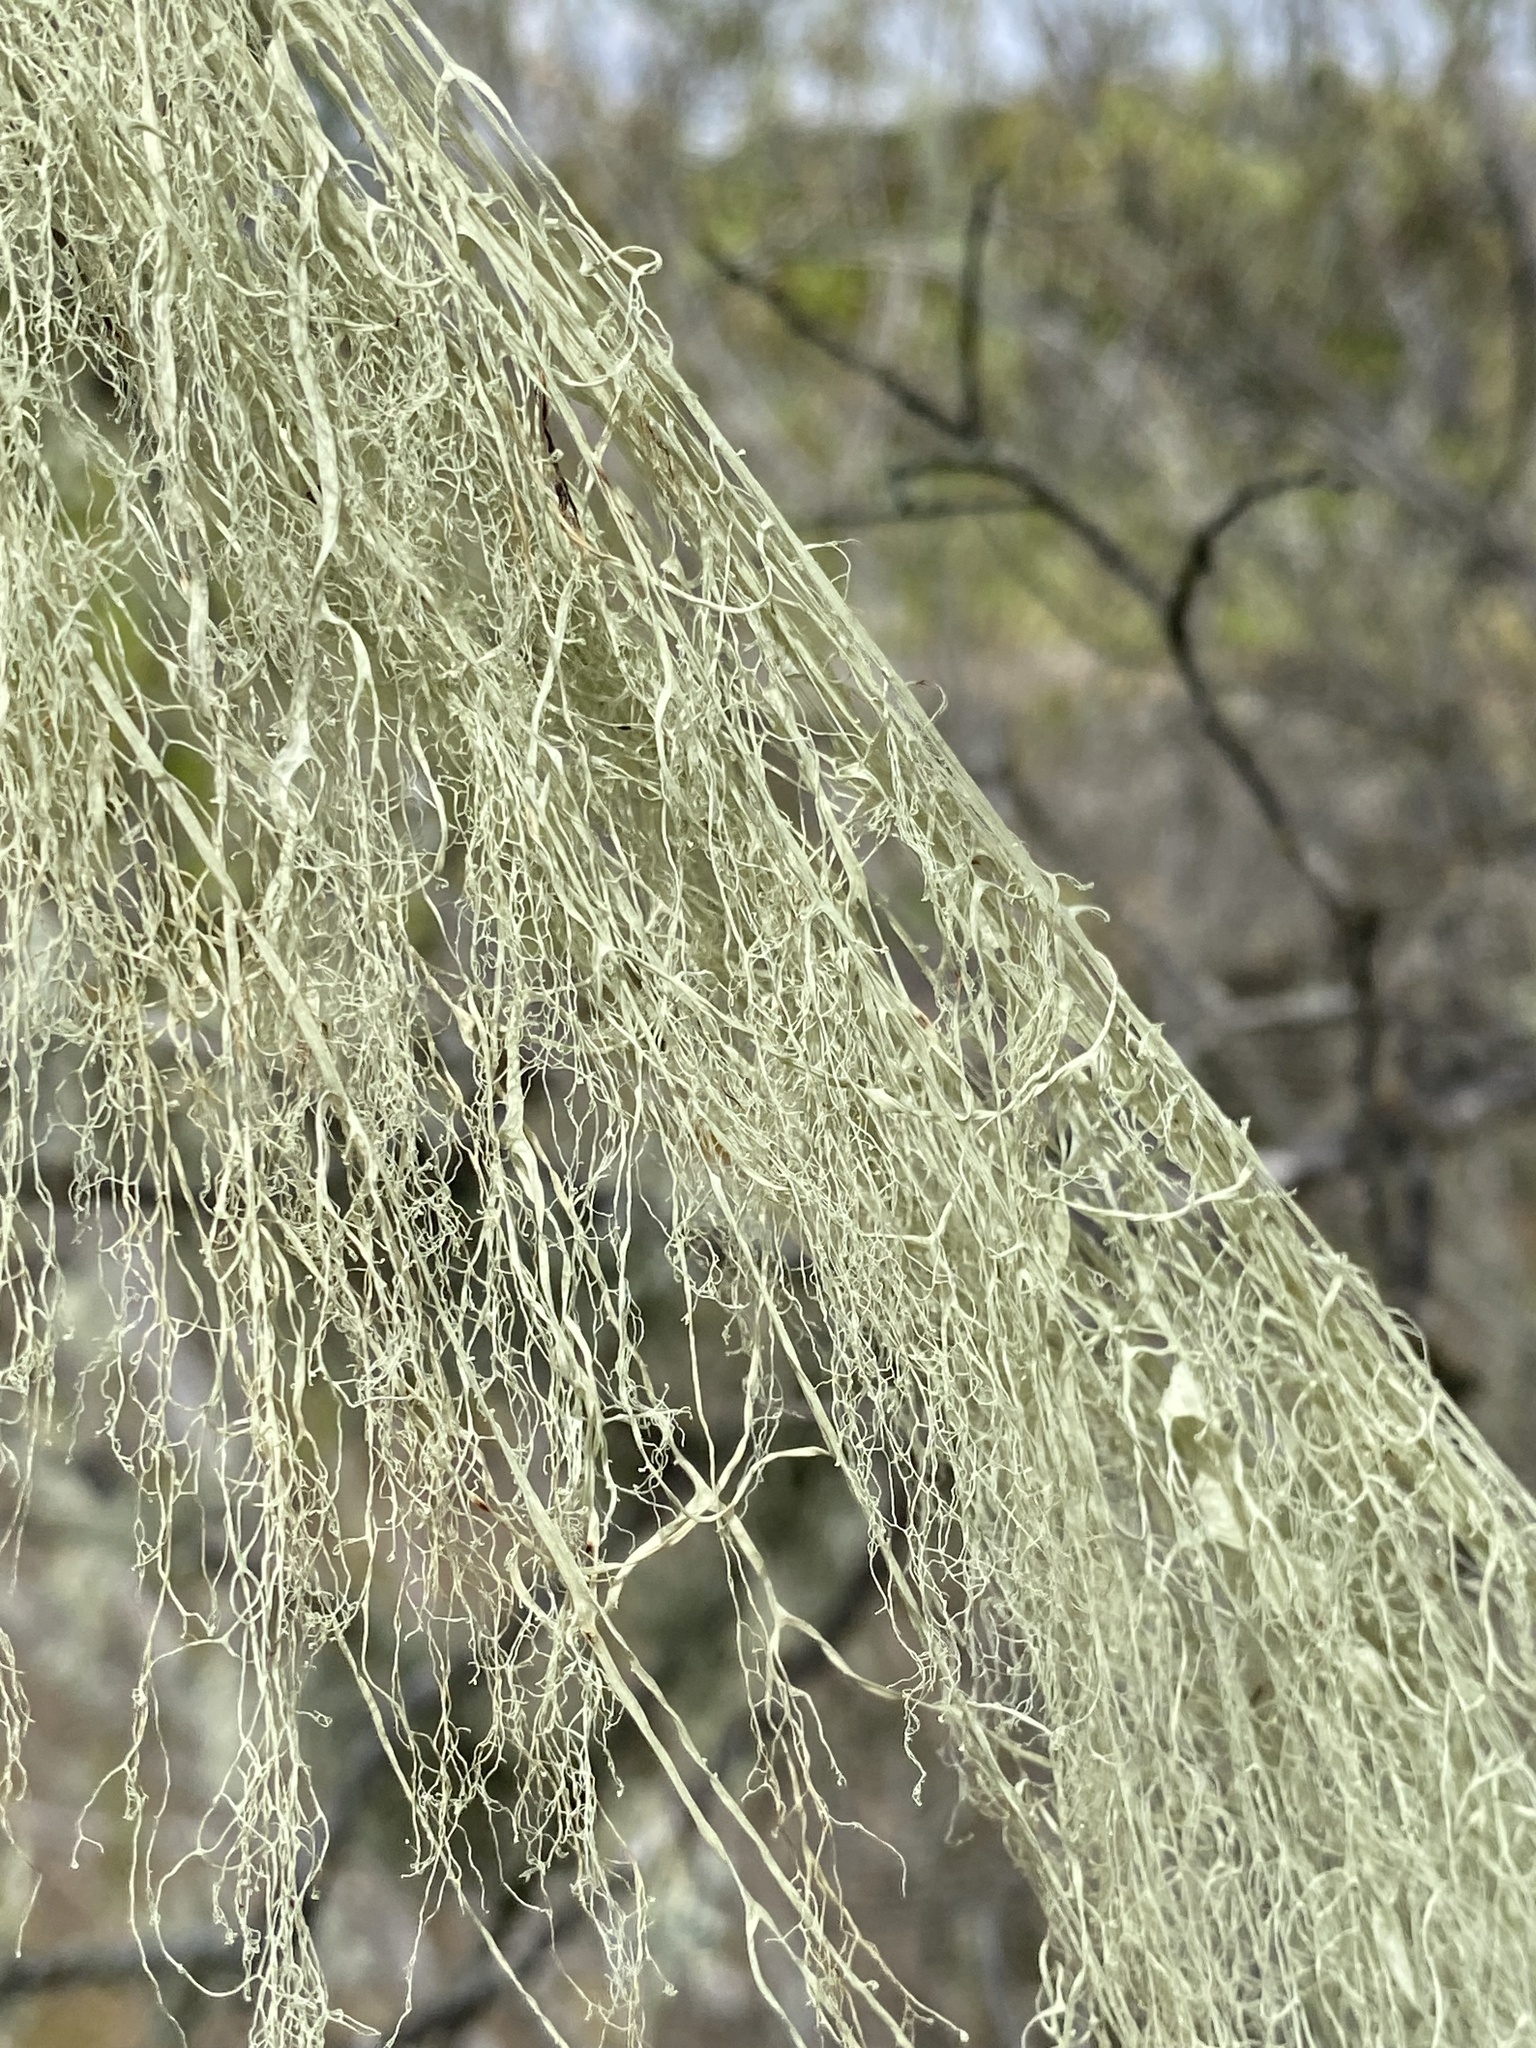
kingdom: Fungi
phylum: Ascomycota
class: Lecanoromycetes
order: Lecanorales
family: Ramalinaceae
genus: Ramalina
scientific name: Ramalina menziesii
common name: Lace lichen
